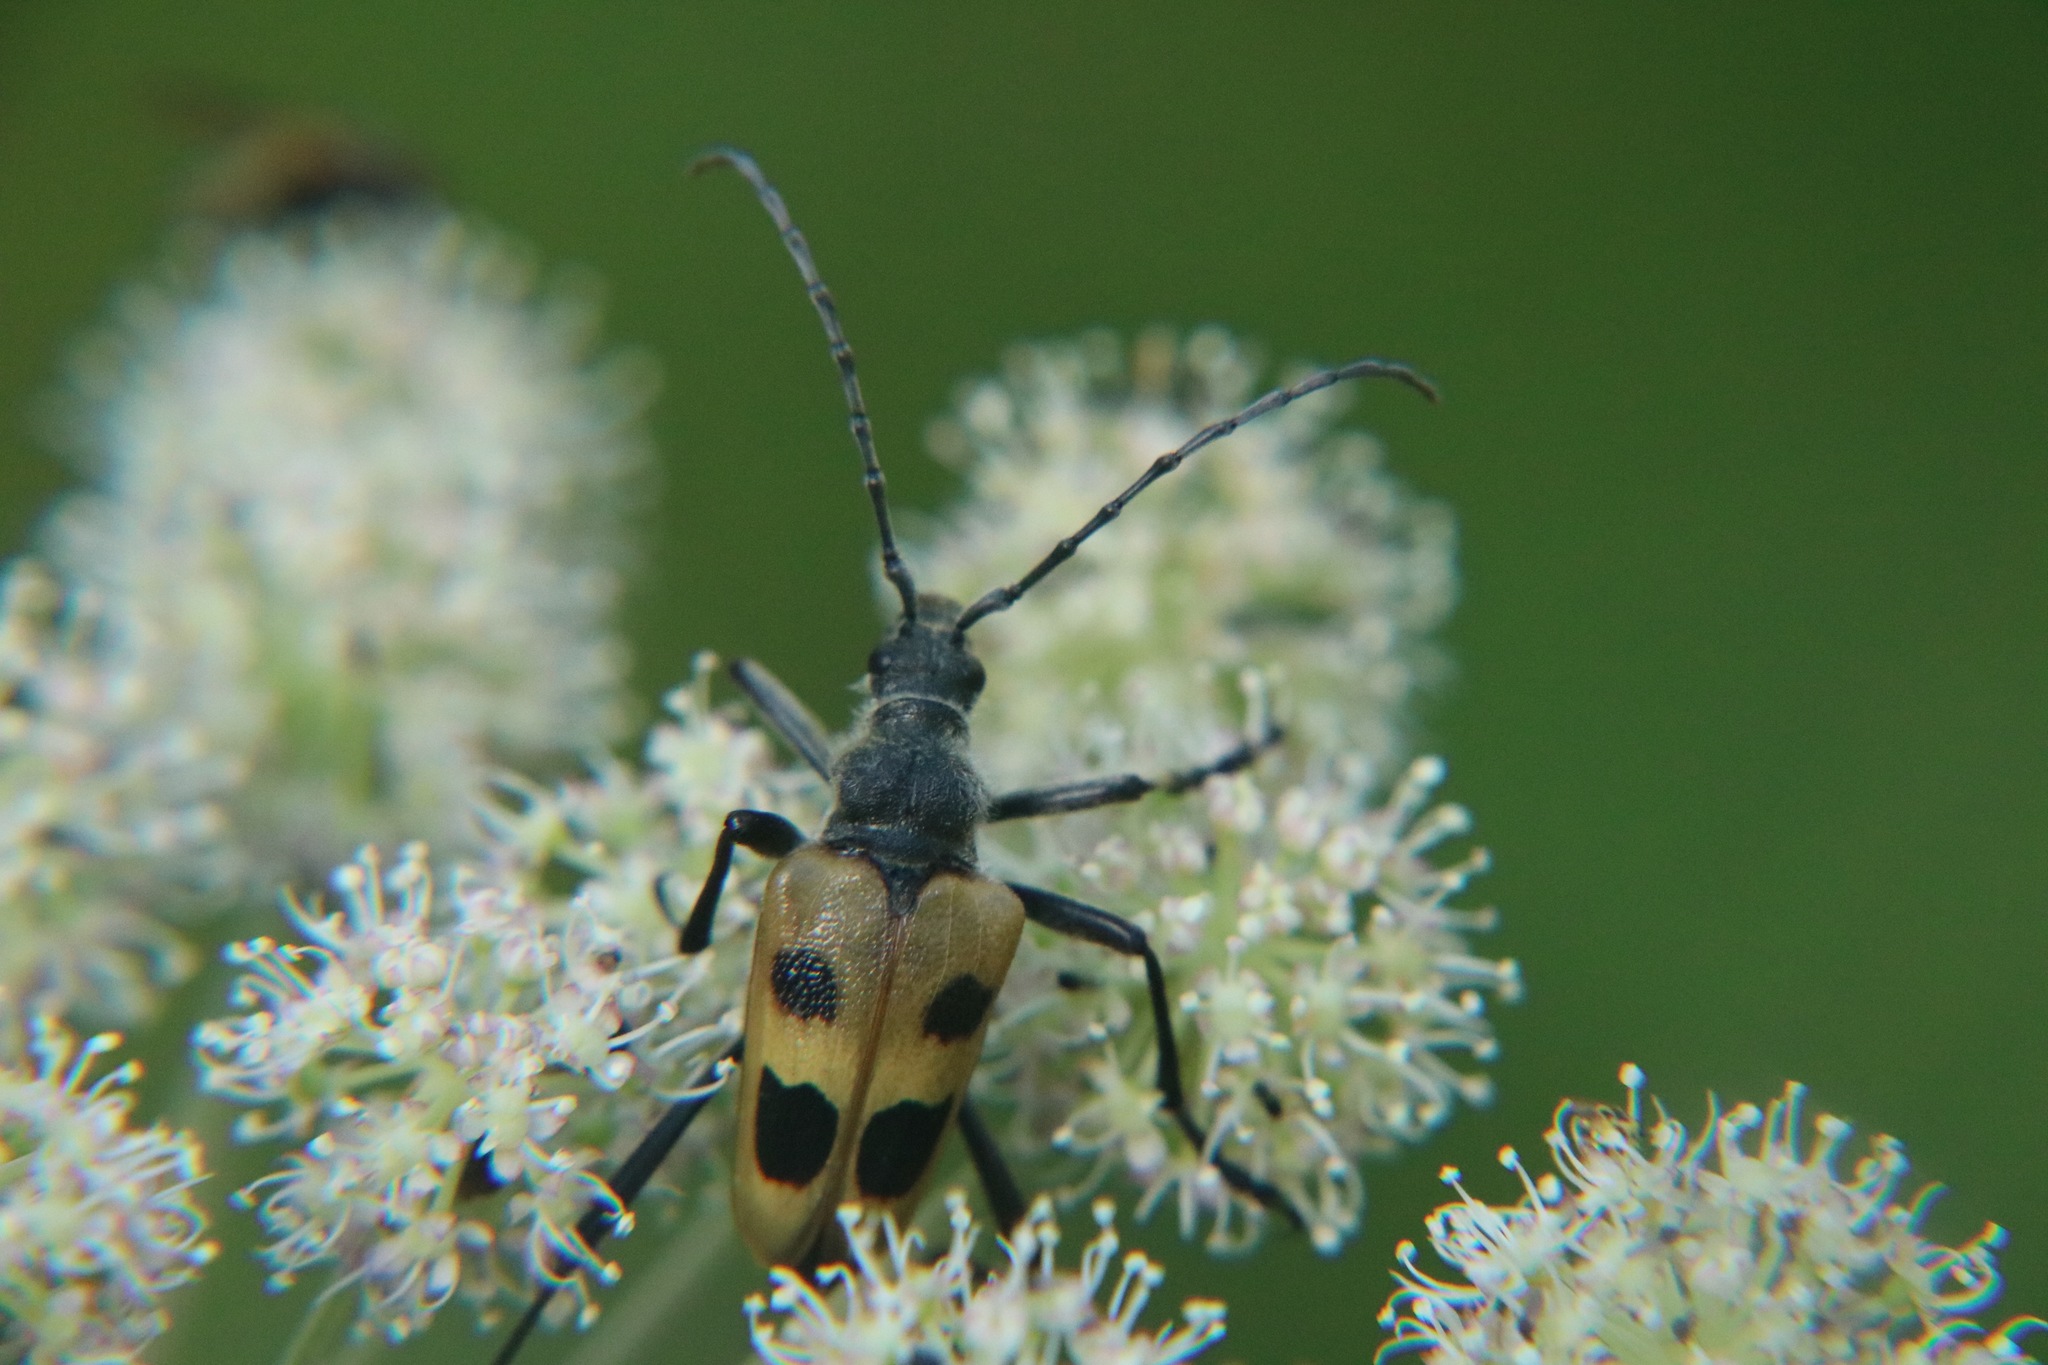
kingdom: Animalia
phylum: Arthropoda
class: Insecta
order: Coleoptera
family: Cerambycidae
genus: Pachyta
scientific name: Pachyta quadrimaculata
